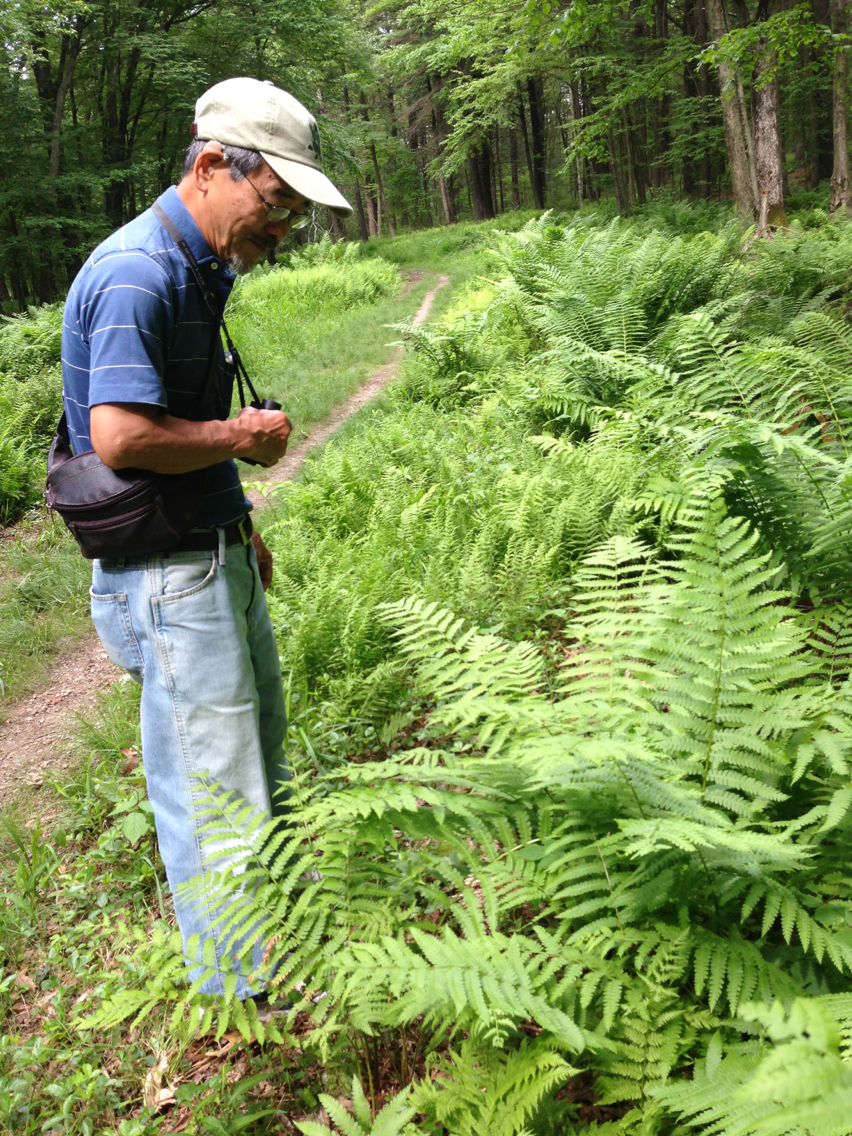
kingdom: Plantae
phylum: Tracheophyta
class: Polypodiopsida
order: Osmundales
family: Osmundaceae
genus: Osmundastrum
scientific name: Osmundastrum cinnamomeum
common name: Cinnamon fern
